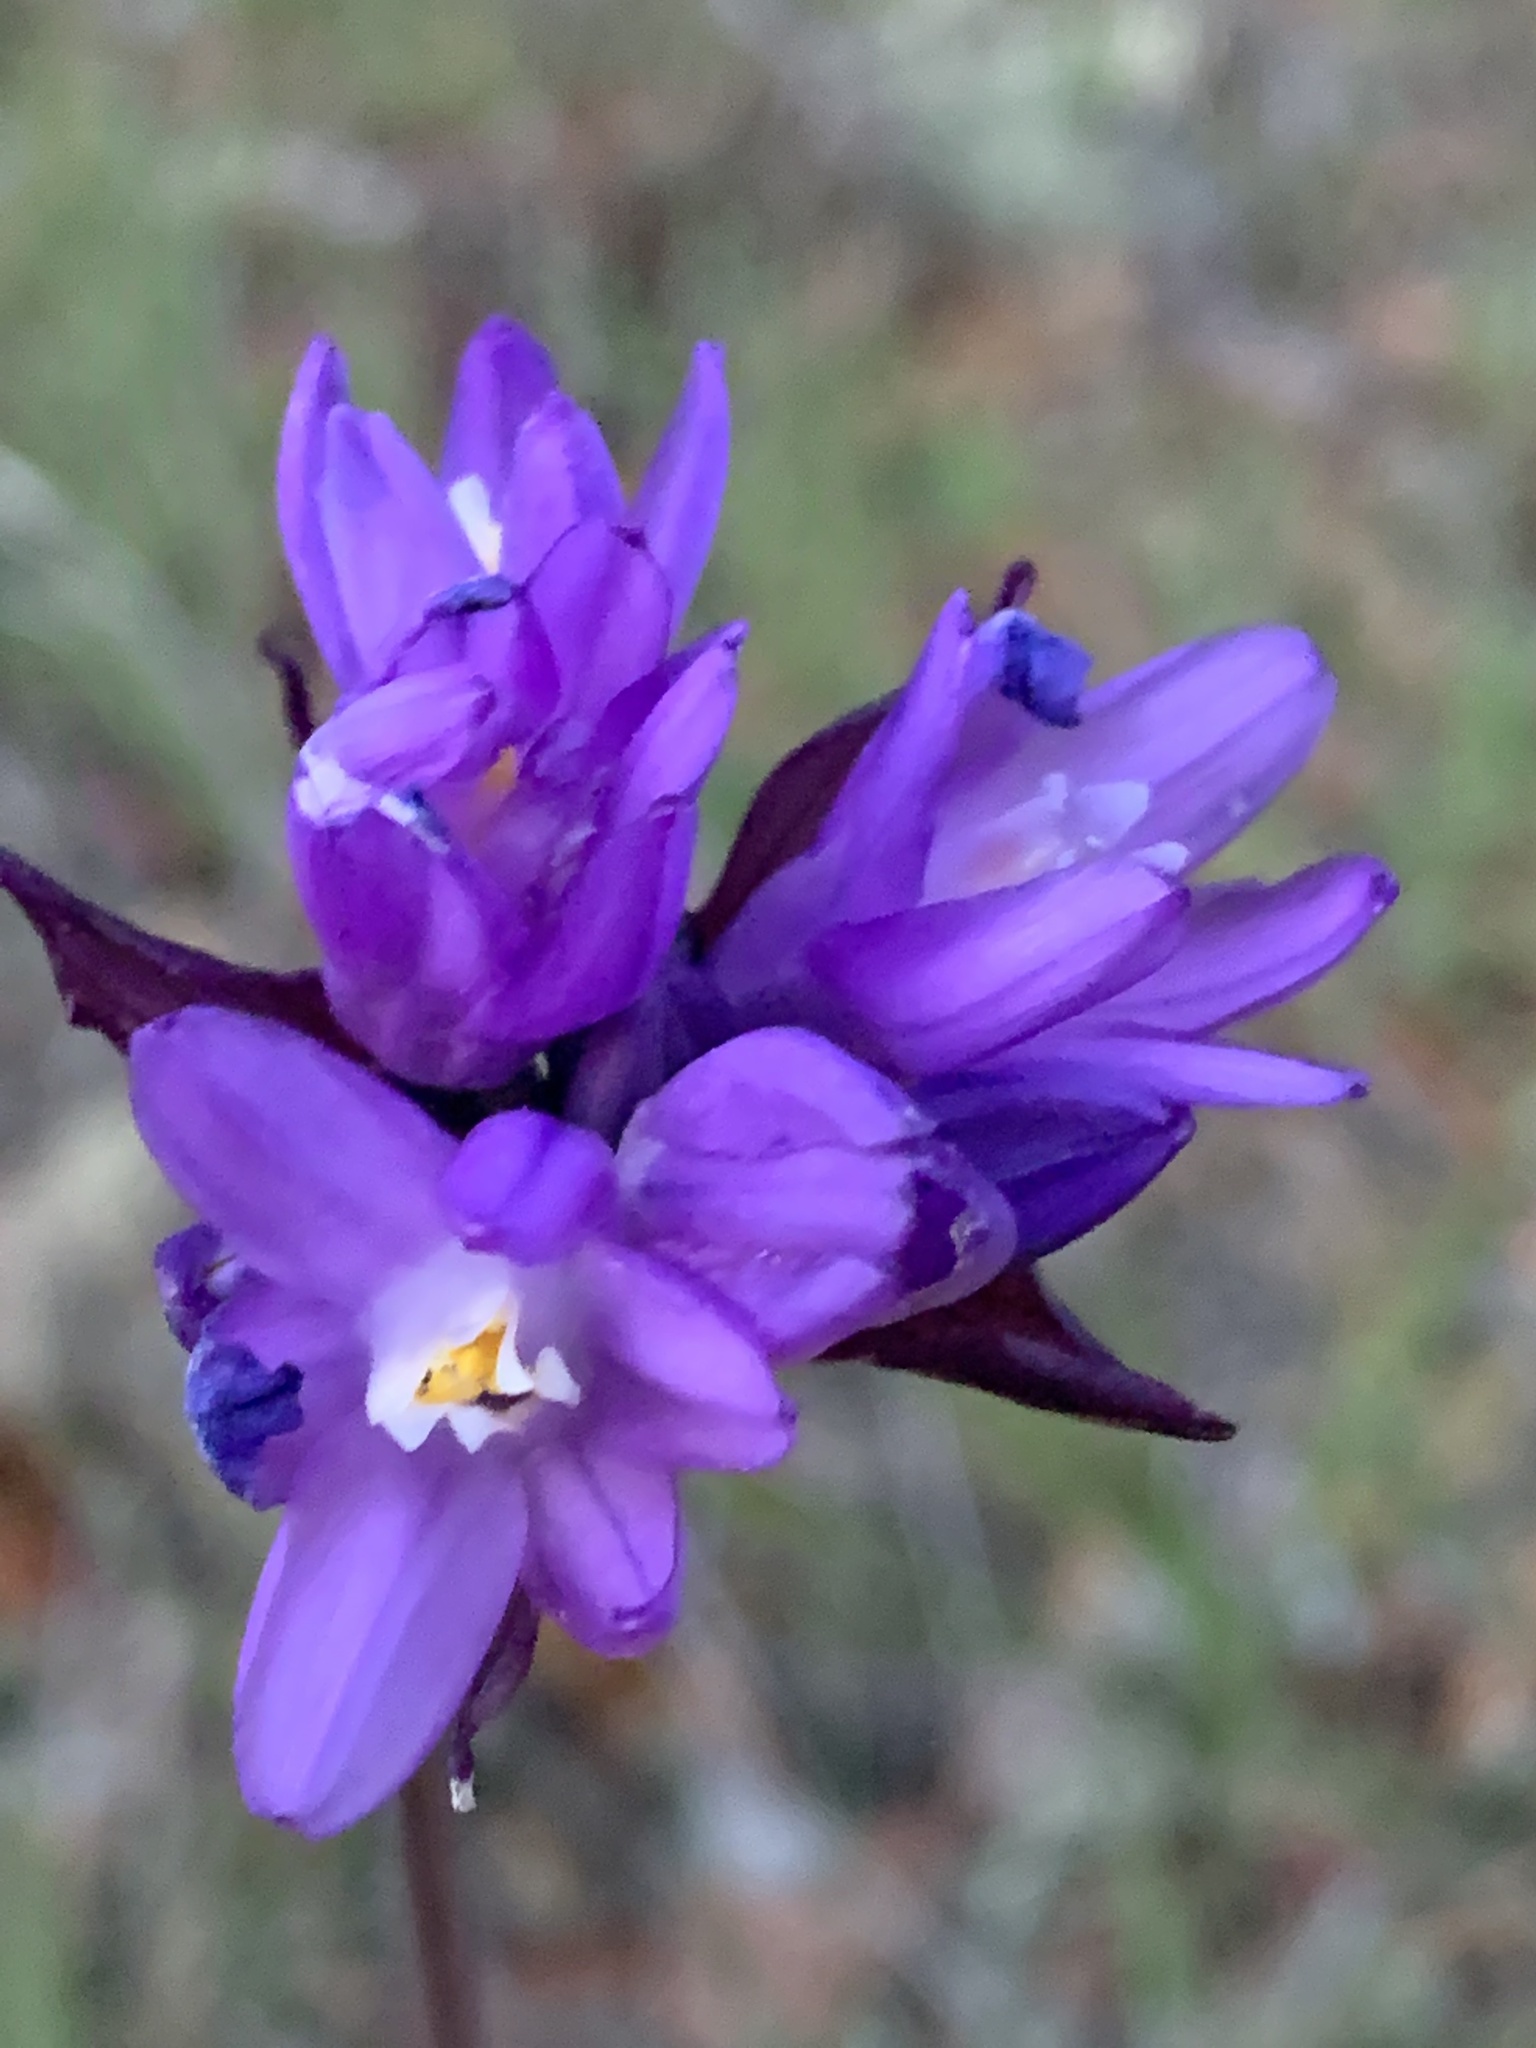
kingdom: Plantae
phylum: Tracheophyta
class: Liliopsida
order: Asparagales
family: Asparagaceae
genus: Dipterostemon
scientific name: Dipterostemon capitatus
